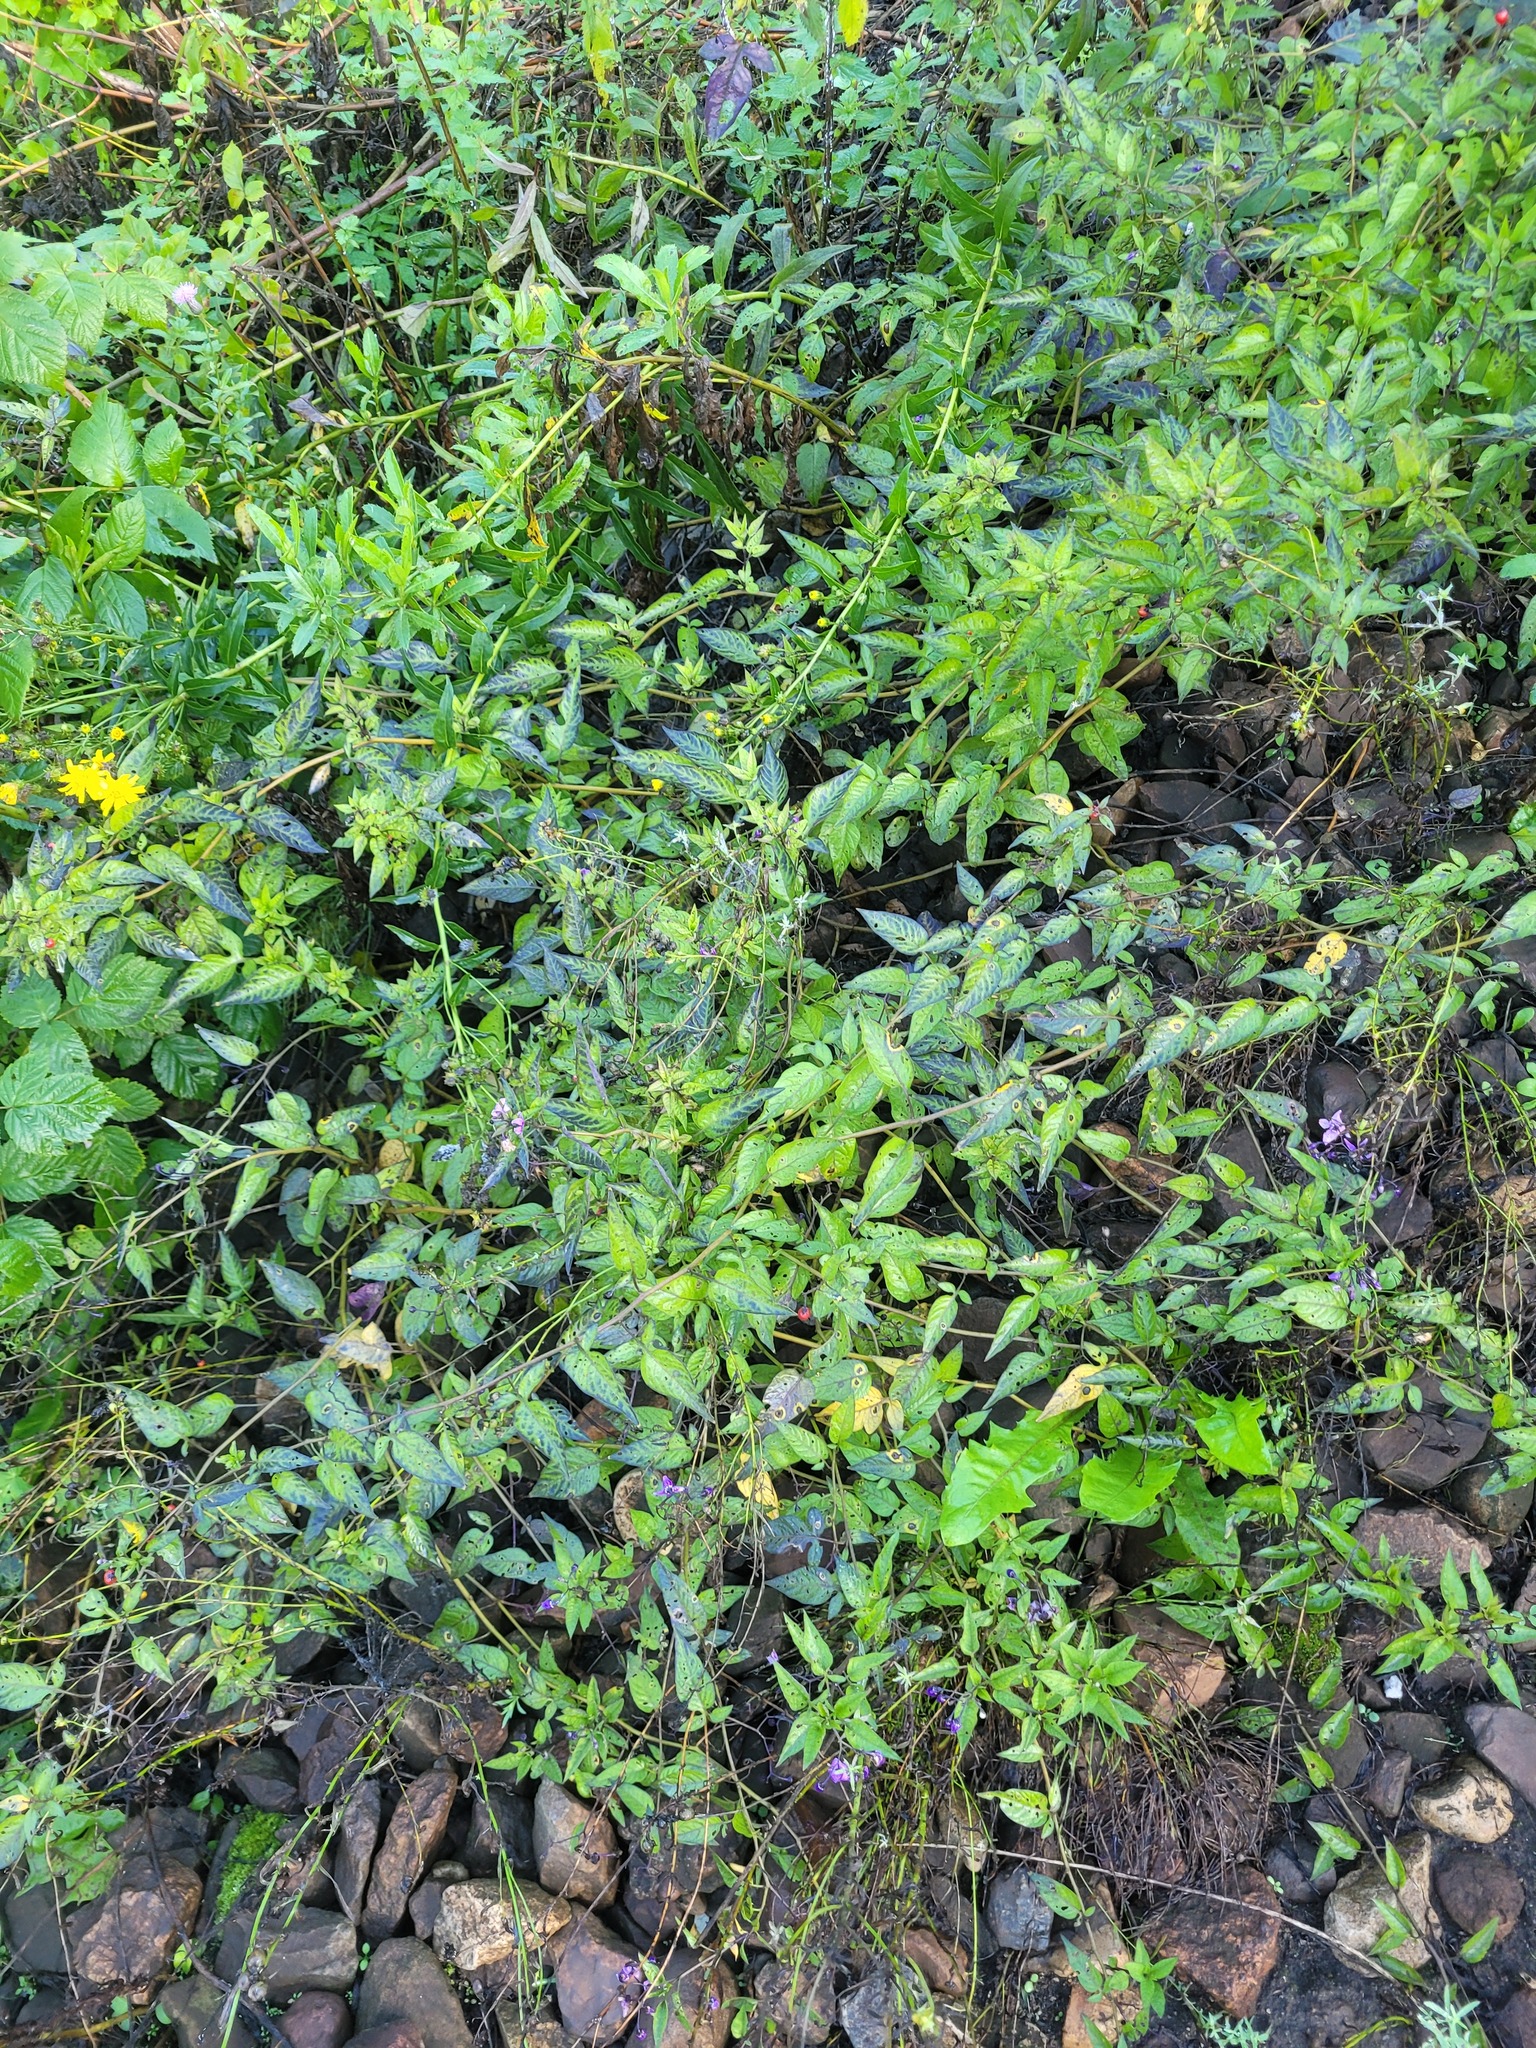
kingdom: Plantae
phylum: Tracheophyta
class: Magnoliopsida
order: Solanales
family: Solanaceae
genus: Solanum
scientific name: Solanum dulcamara
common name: Climbing nightshade
